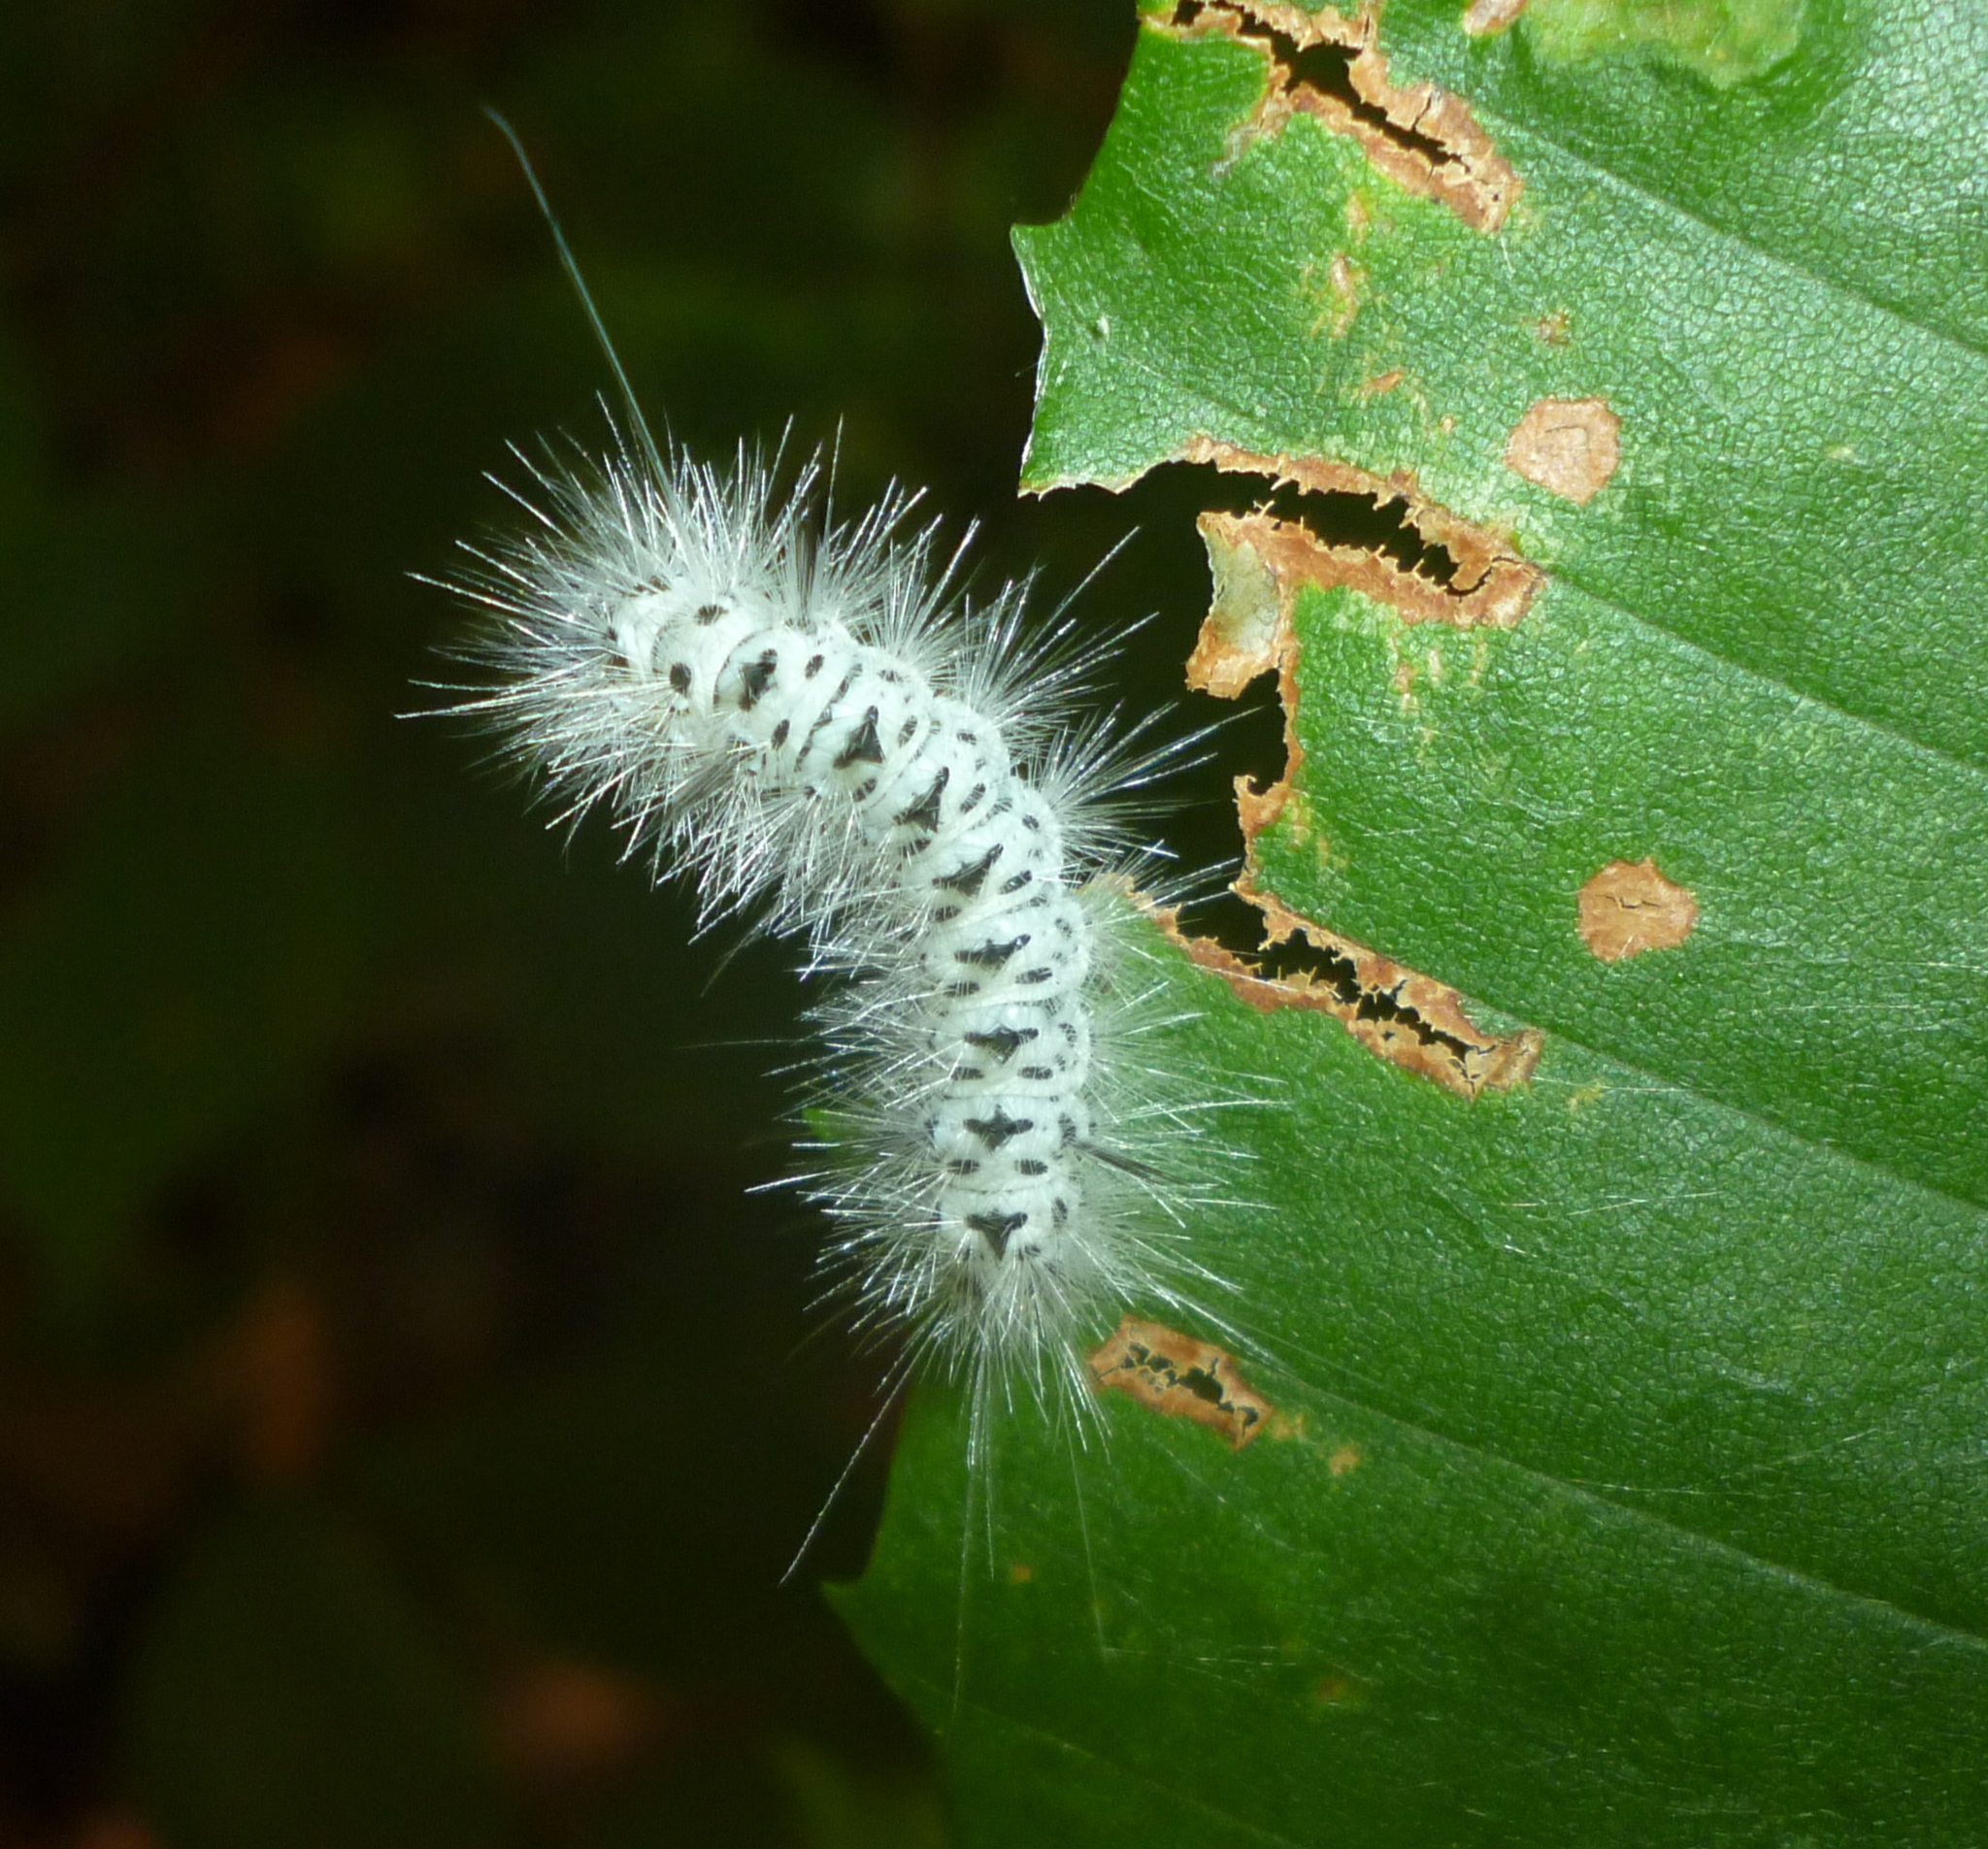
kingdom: Animalia
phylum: Arthropoda
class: Insecta
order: Lepidoptera
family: Erebidae
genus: Lophocampa
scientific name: Lophocampa caryae
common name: Hickory tussock moth
